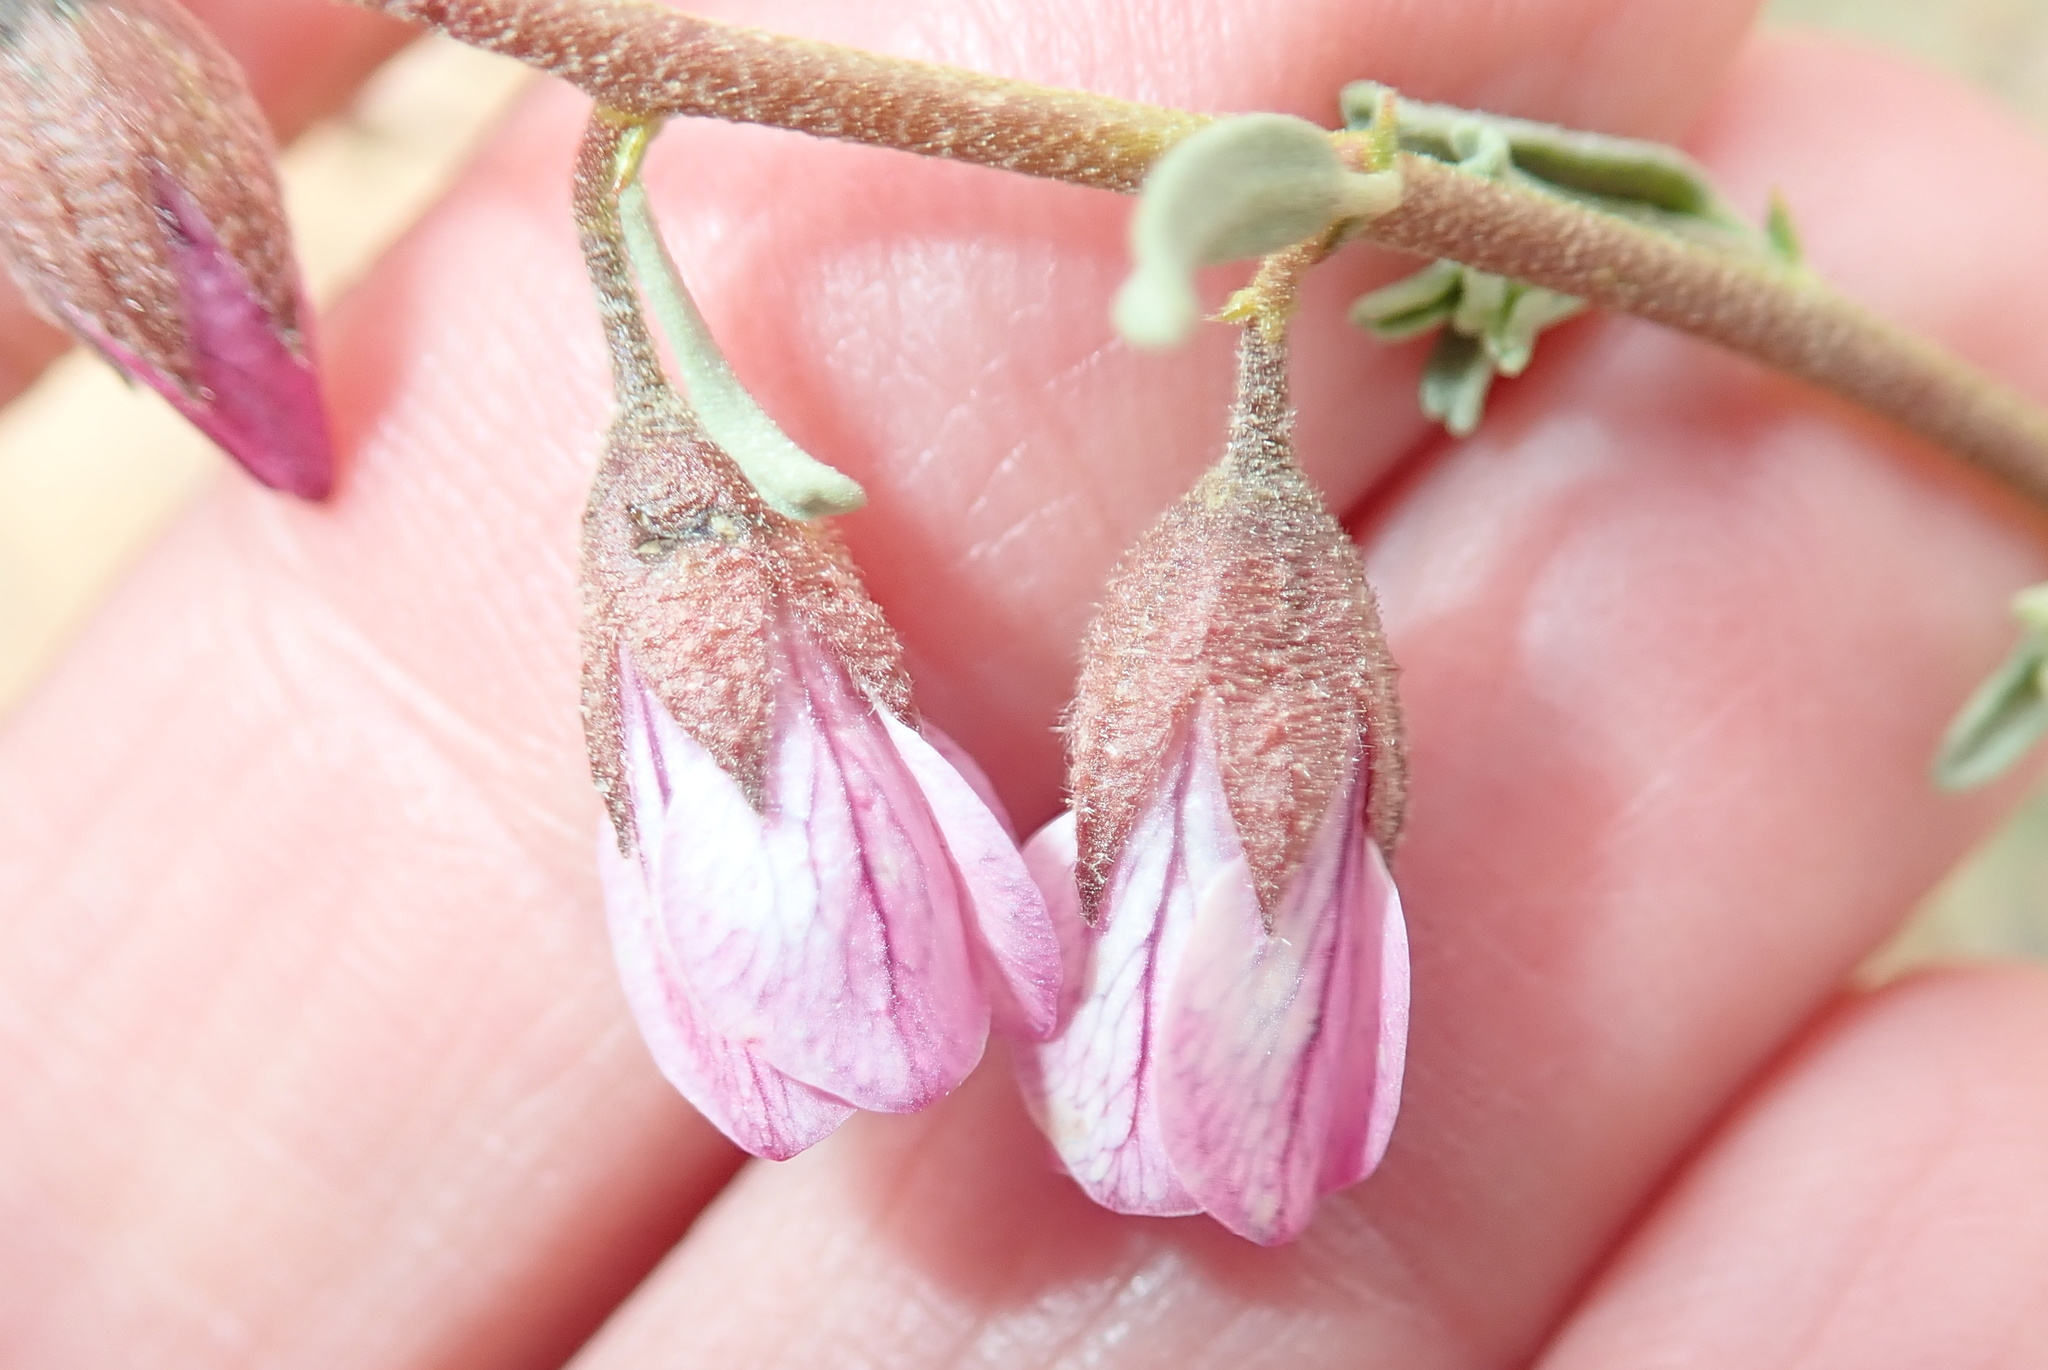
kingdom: Plantae
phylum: Tracheophyta
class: Magnoliopsida
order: Malvales
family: Malvaceae
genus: Hermannia
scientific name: Hermannia trifurca
